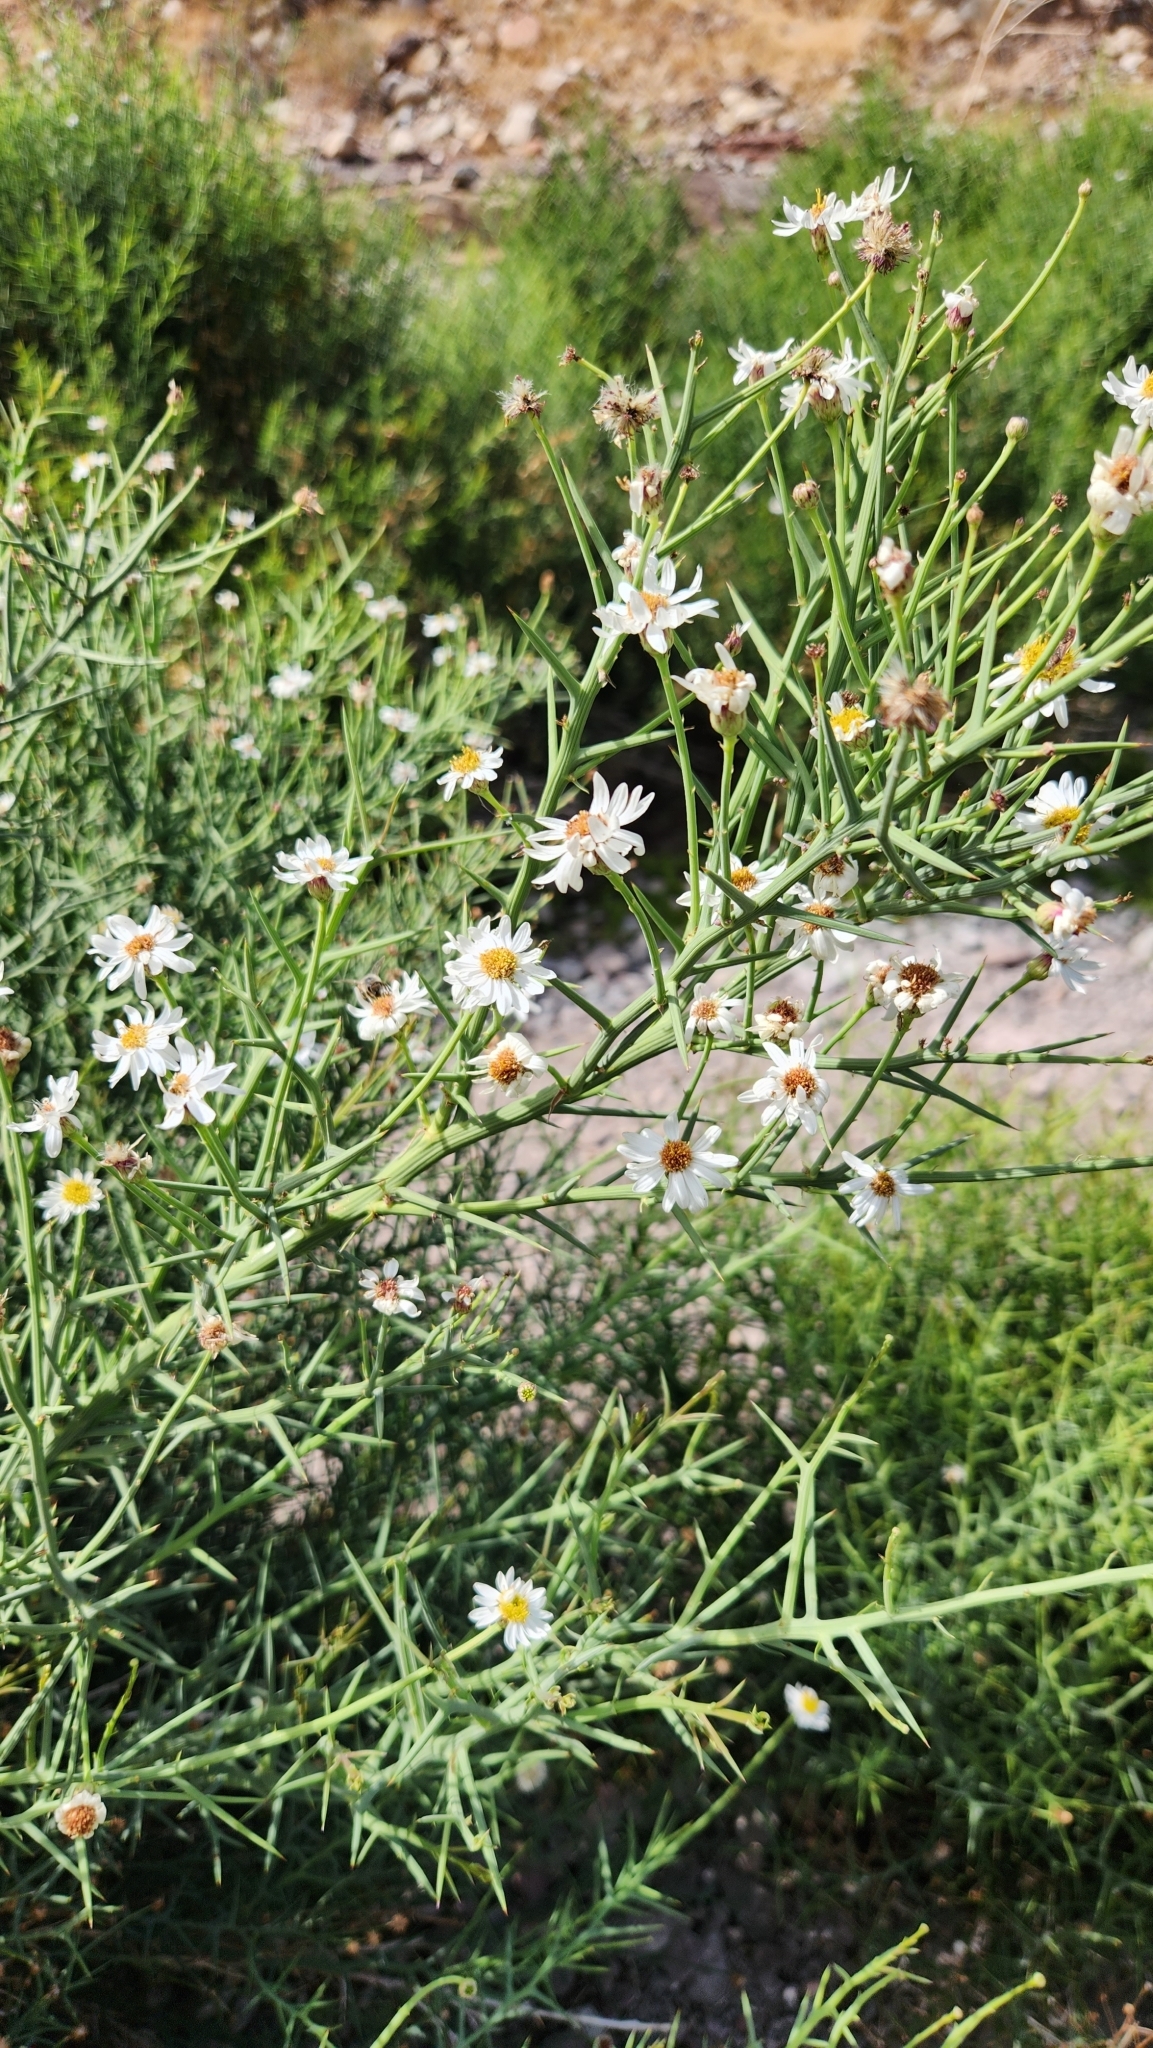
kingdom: Plantae
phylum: Tracheophyta
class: Magnoliopsida
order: Asterales
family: Asteraceae
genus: Chloracantha
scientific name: Chloracantha spinosa
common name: Mexican devilweed
